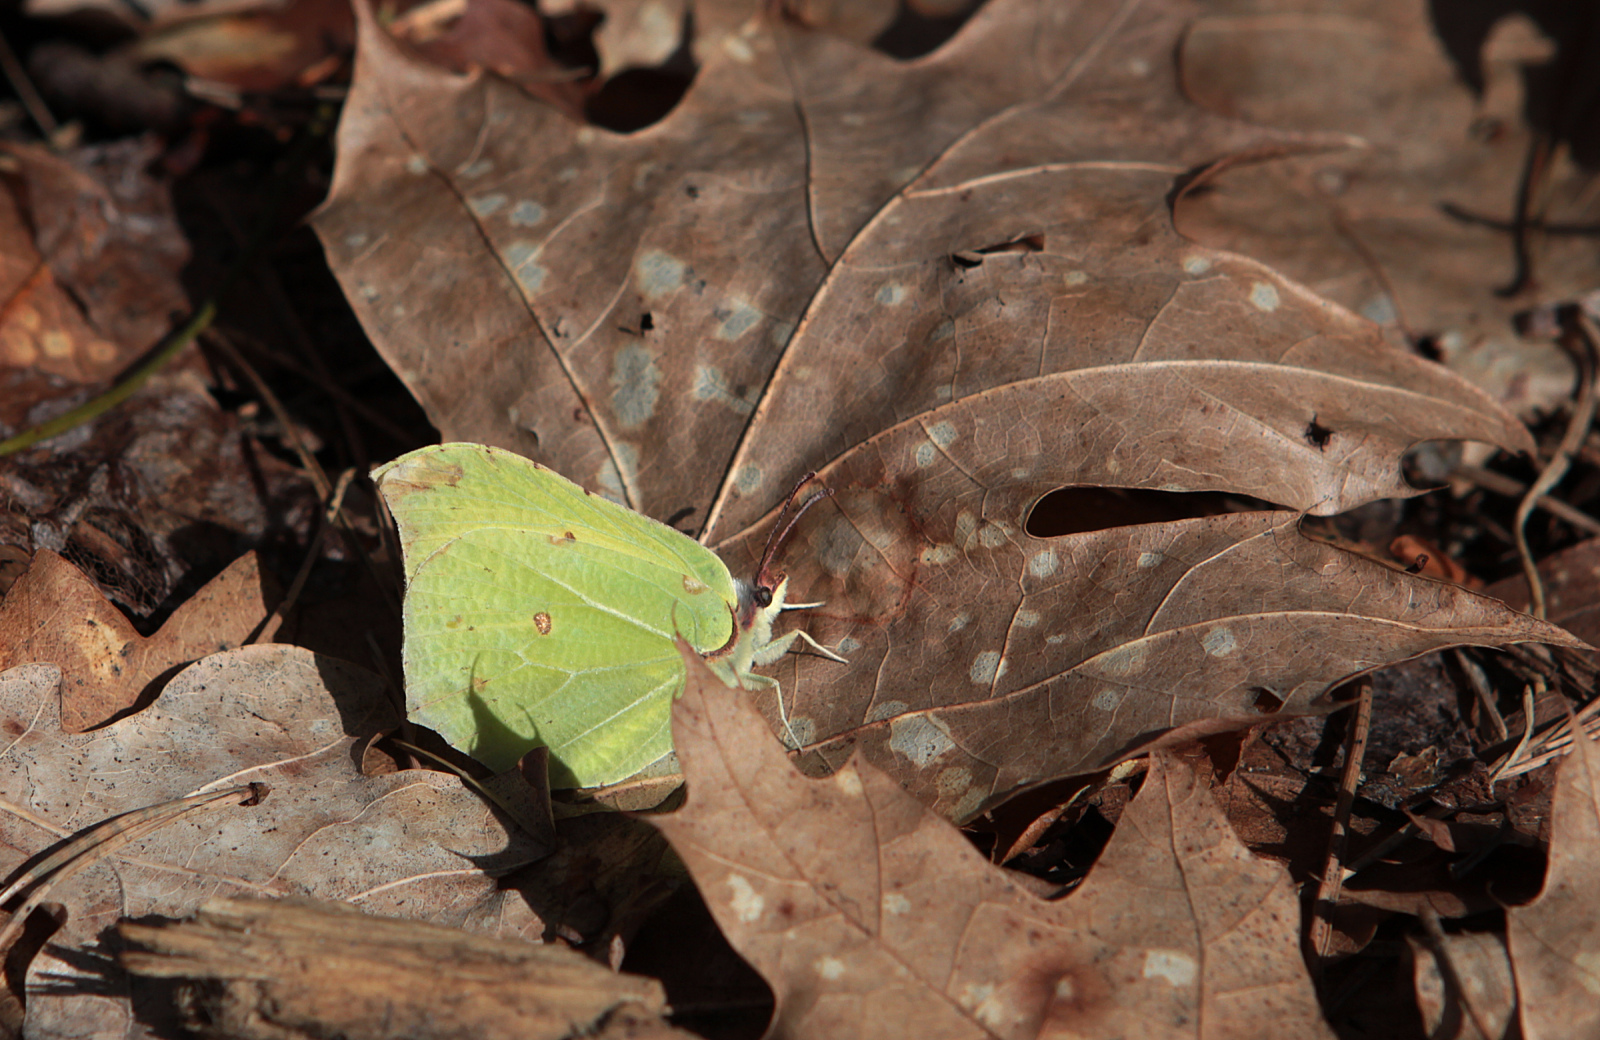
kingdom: Animalia
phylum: Arthropoda
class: Insecta
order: Lepidoptera
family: Pieridae
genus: Gonepteryx
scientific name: Gonepteryx rhamni
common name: Brimstone
